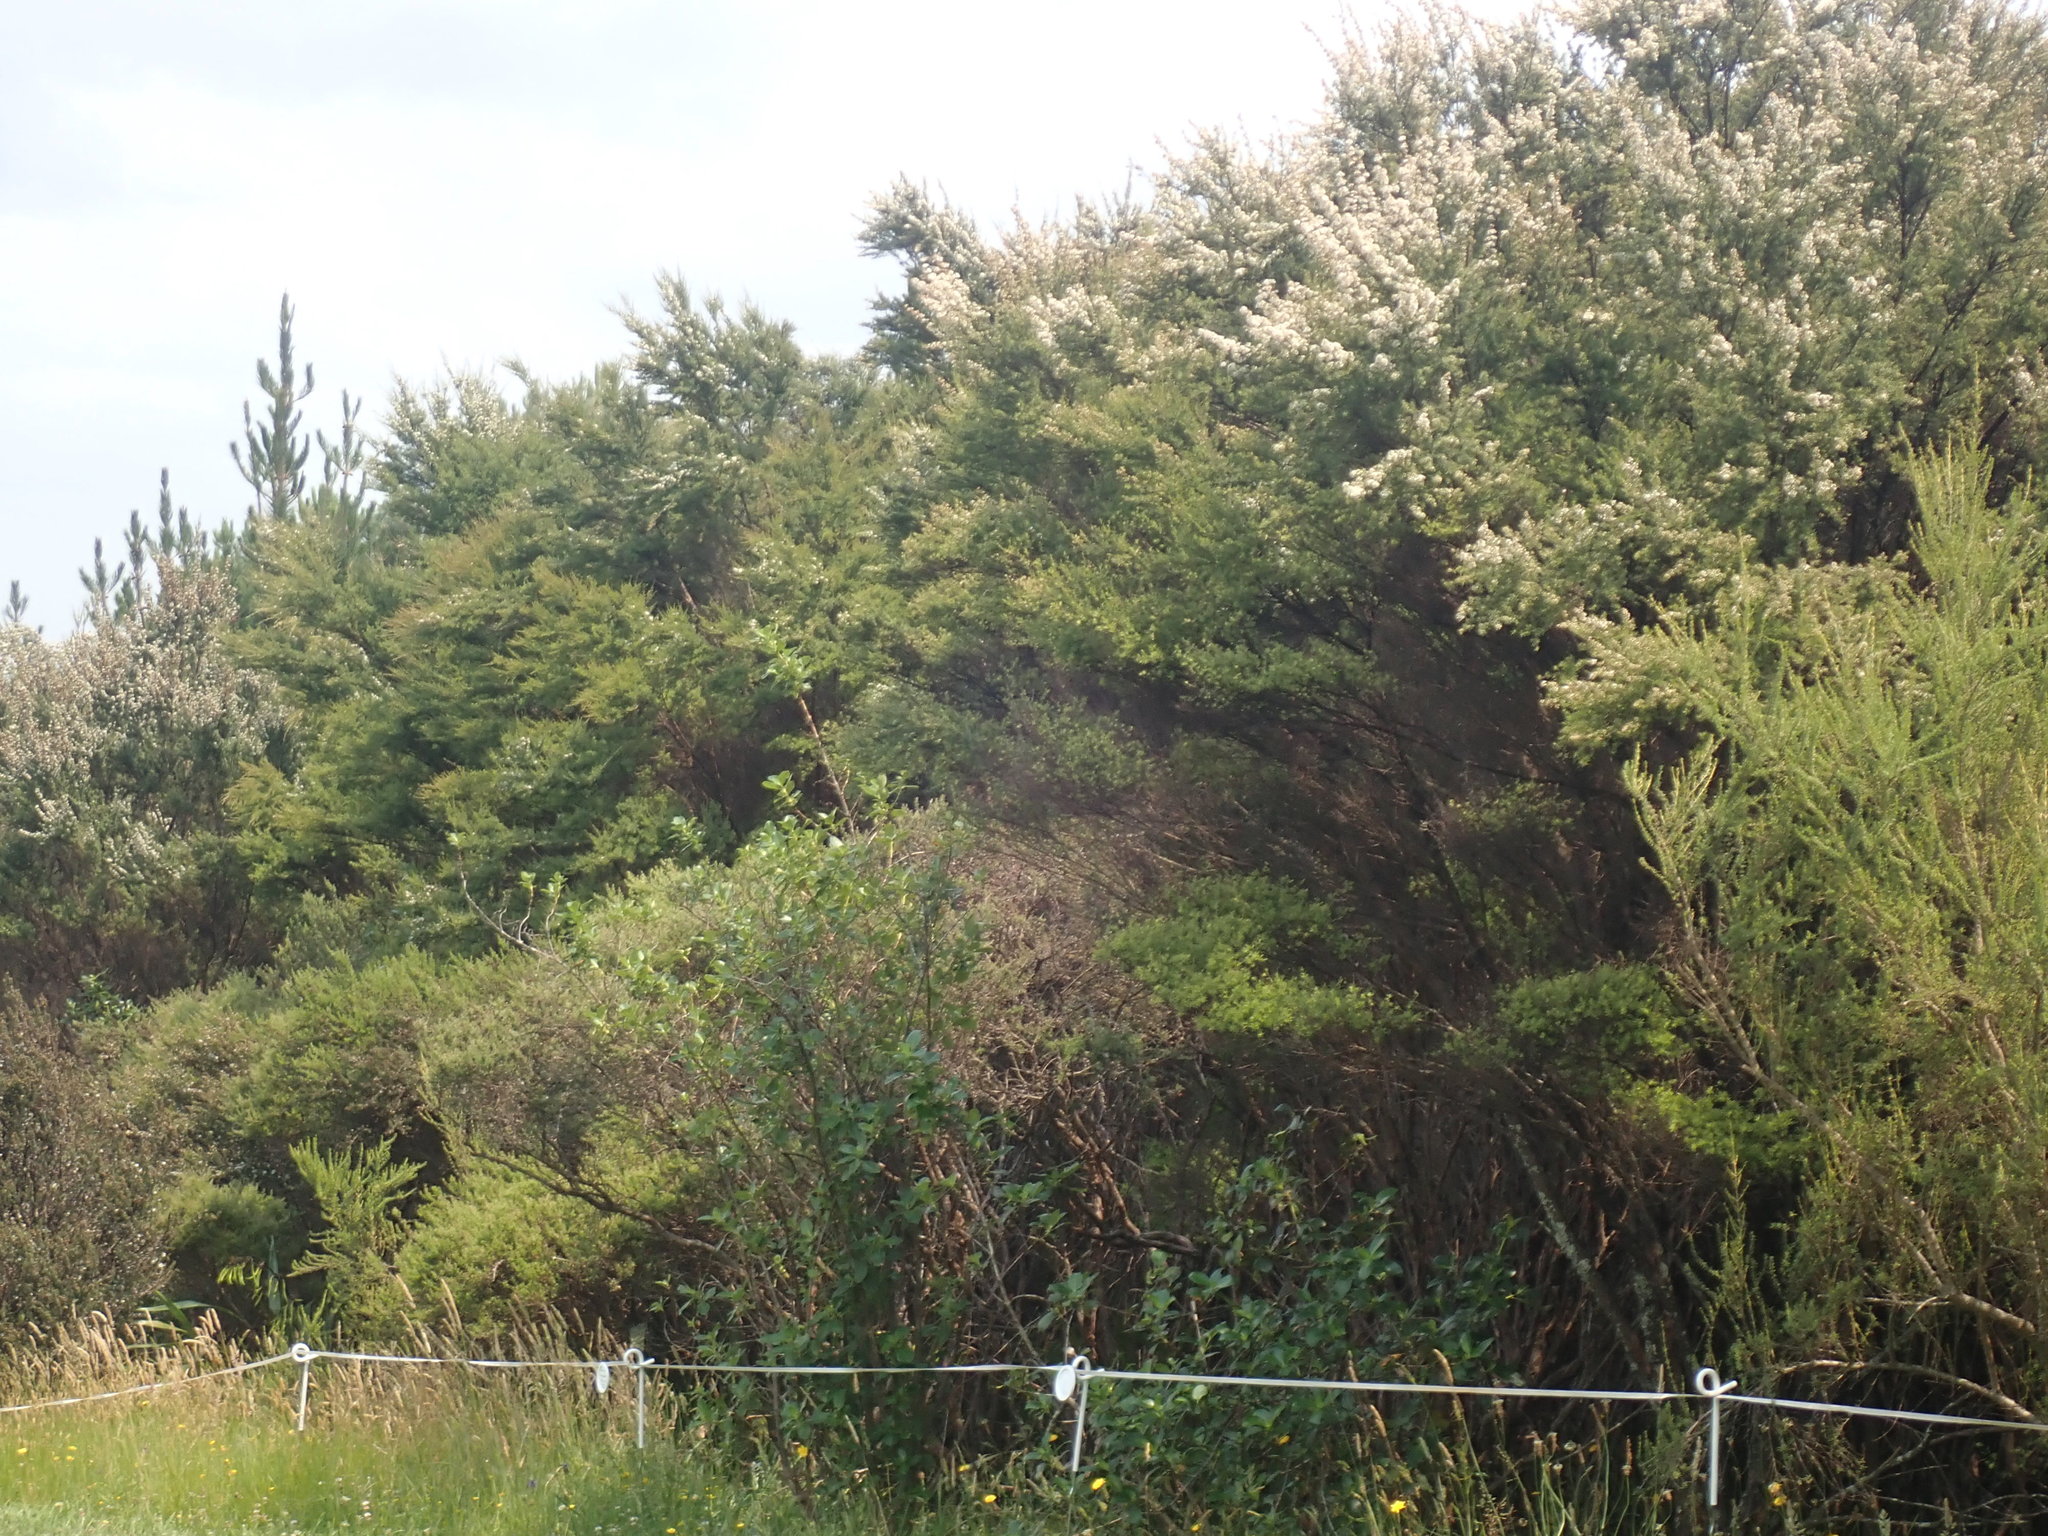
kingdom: Plantae
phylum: Tracheophyta
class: Magnoliopsida
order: Asterales
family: Asteraceae
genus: Olearia
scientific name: Olearia solandri
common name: Coastal daisybush
